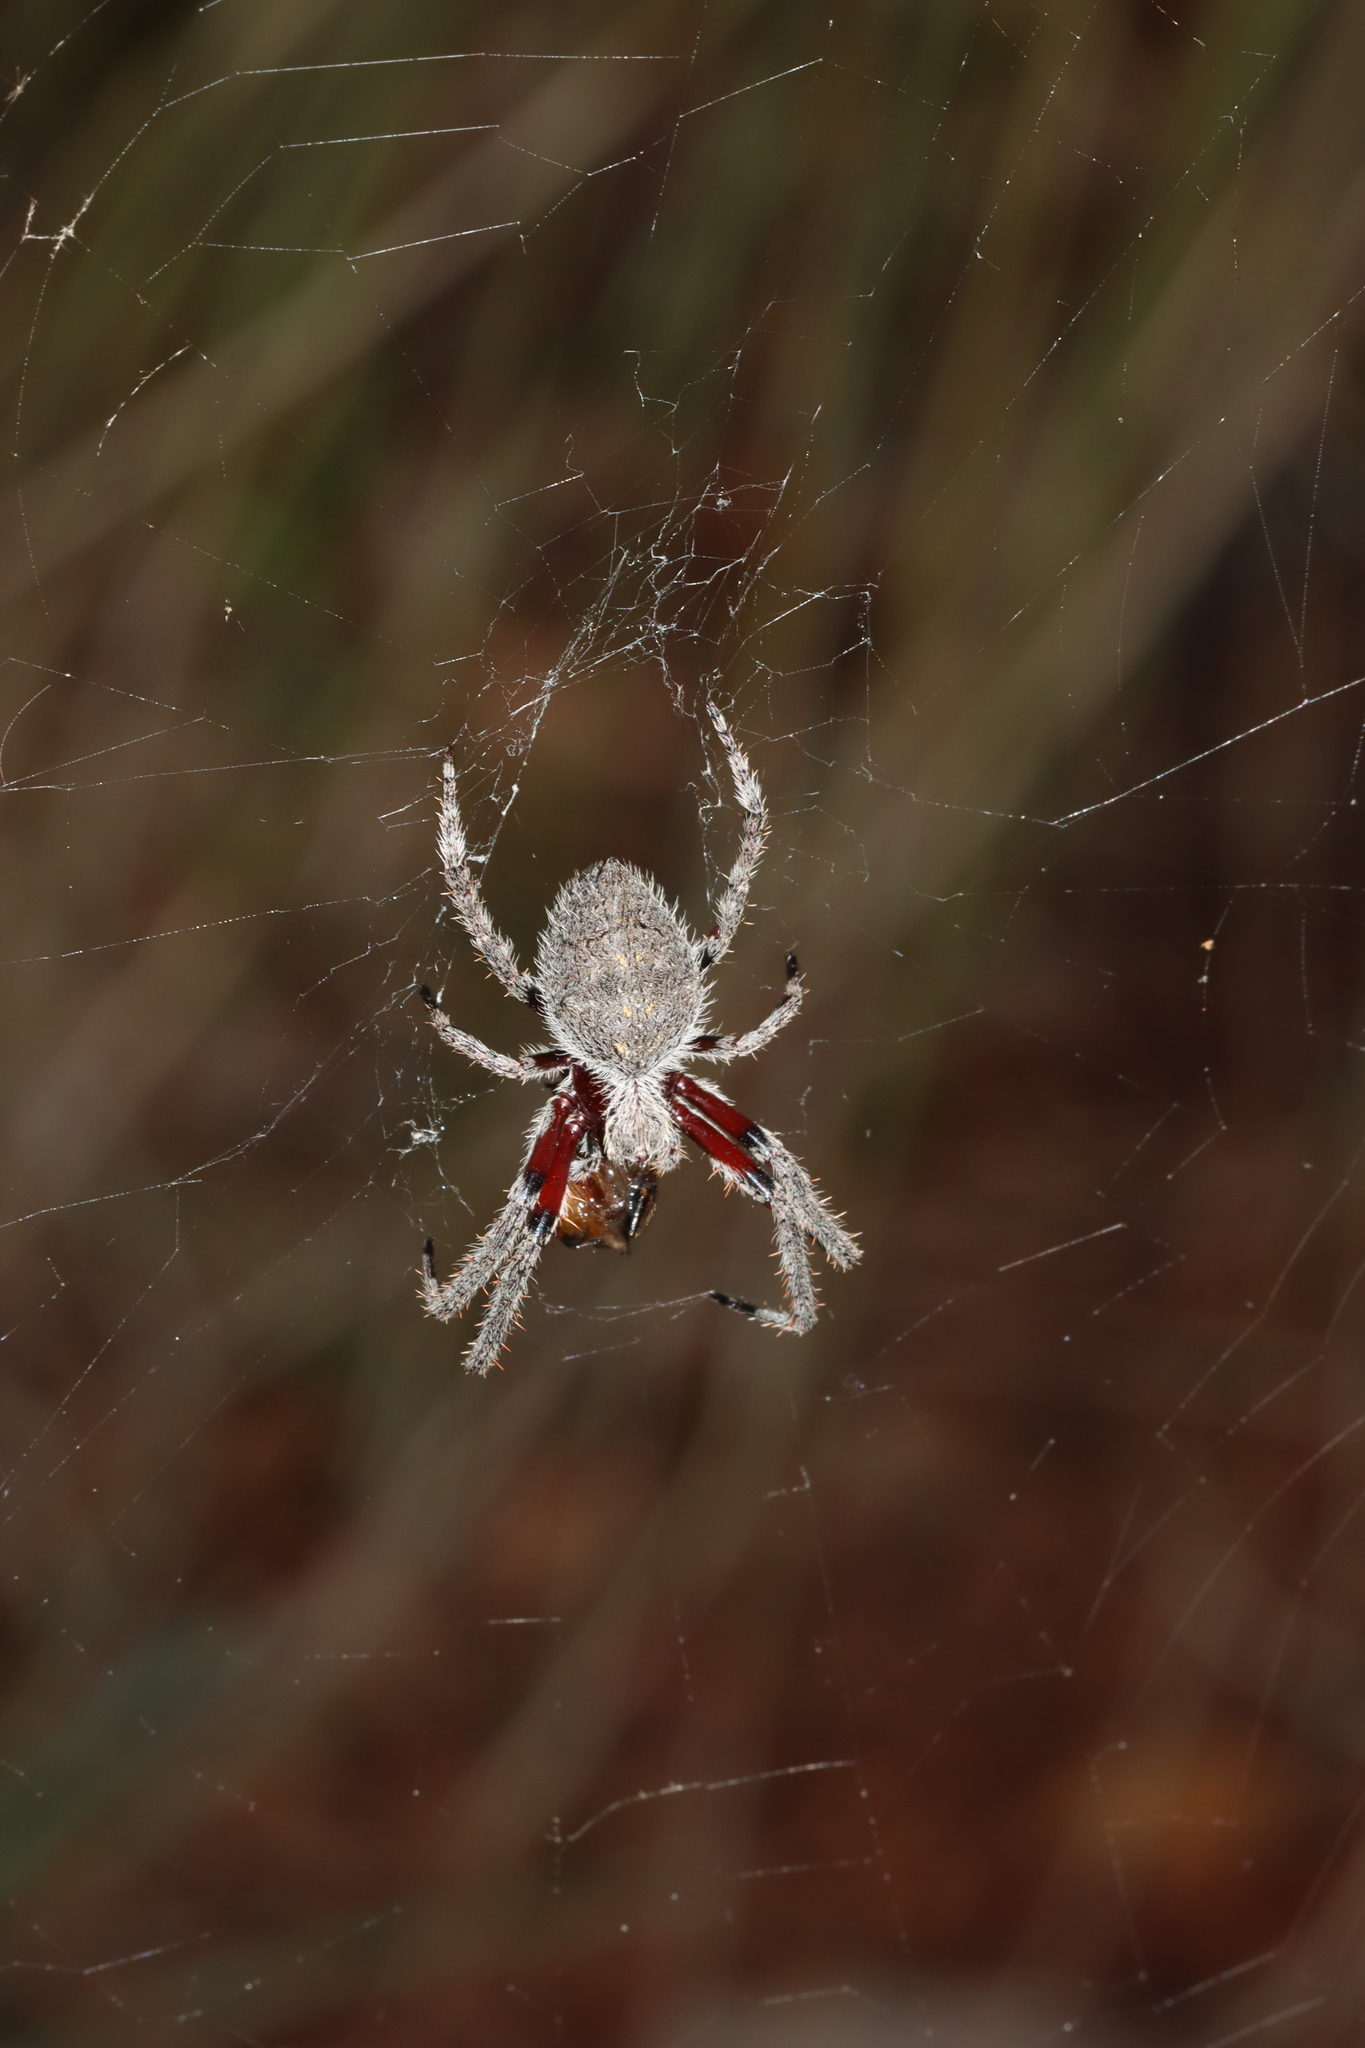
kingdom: Animalia
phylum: Arthropoda
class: Arachnida
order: Araneae
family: Araneidae
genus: Hortophora
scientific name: Hortophora biapicata
